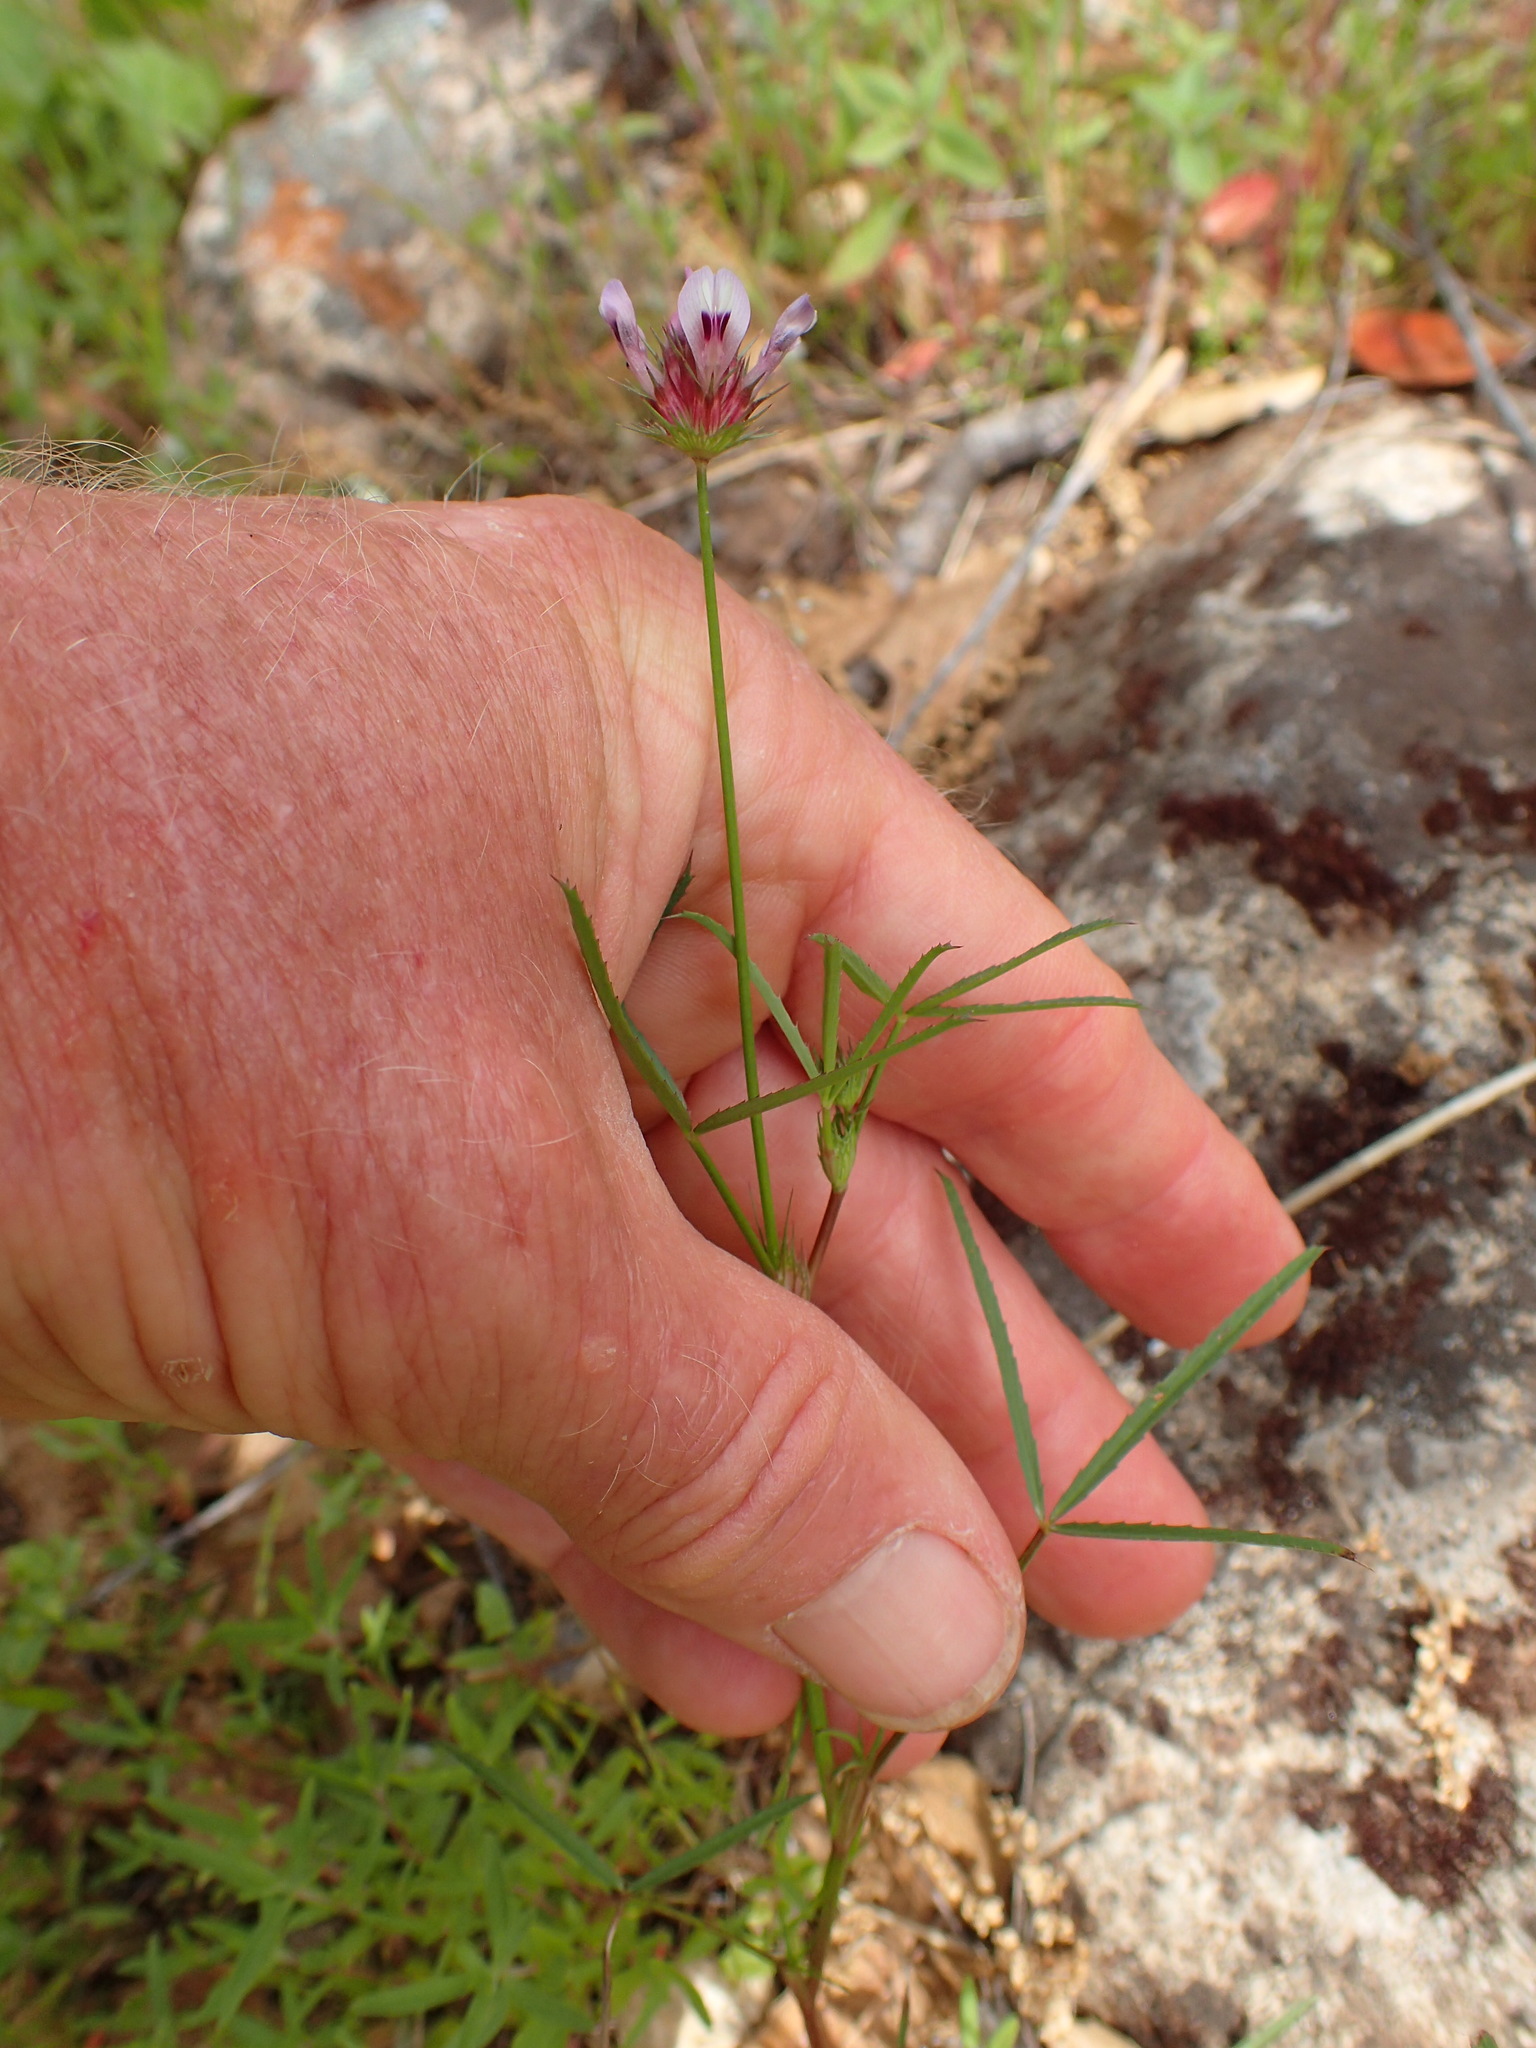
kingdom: Plantae
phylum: Tracheophyta
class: Magnoliopsida
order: Fabales
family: Fabaceae
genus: Trifolium
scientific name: Trifolium willdenovii
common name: Tomcat clover
